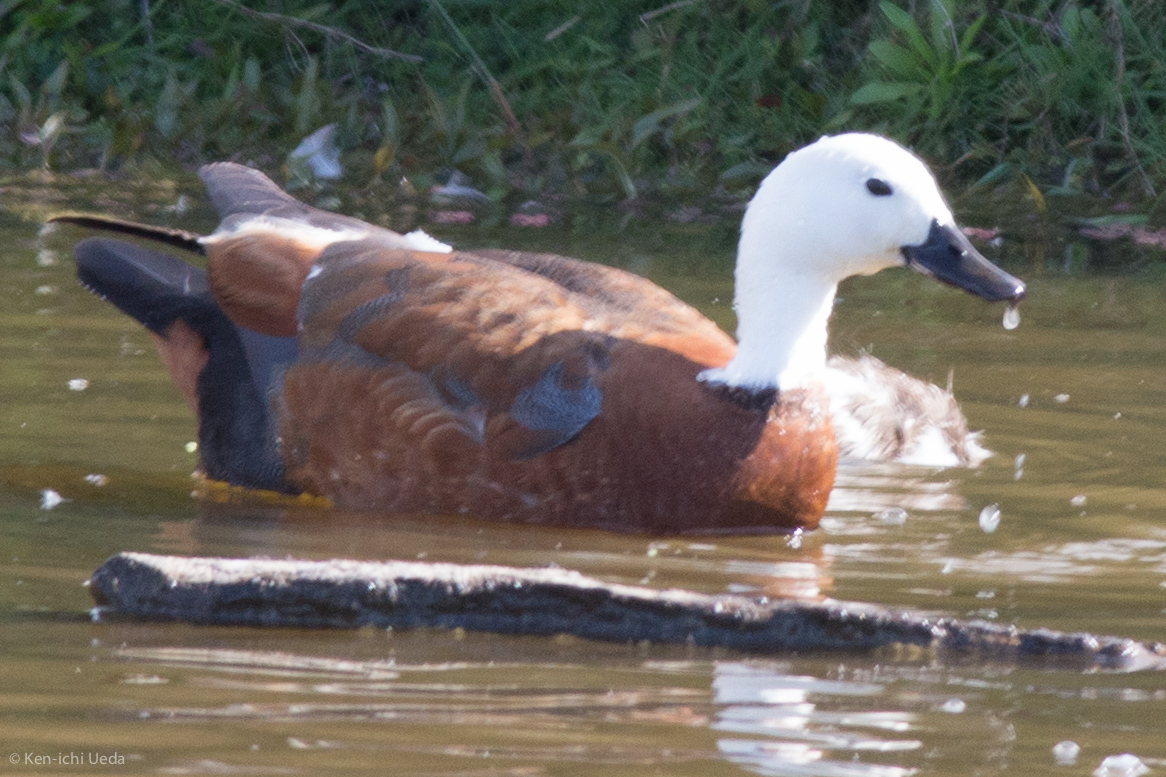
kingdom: Animalia
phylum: Chordata
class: Aves
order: Anseriformes
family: Anatidae
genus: Tadorna
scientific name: Tadorna variegata
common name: Paradise shelduck
